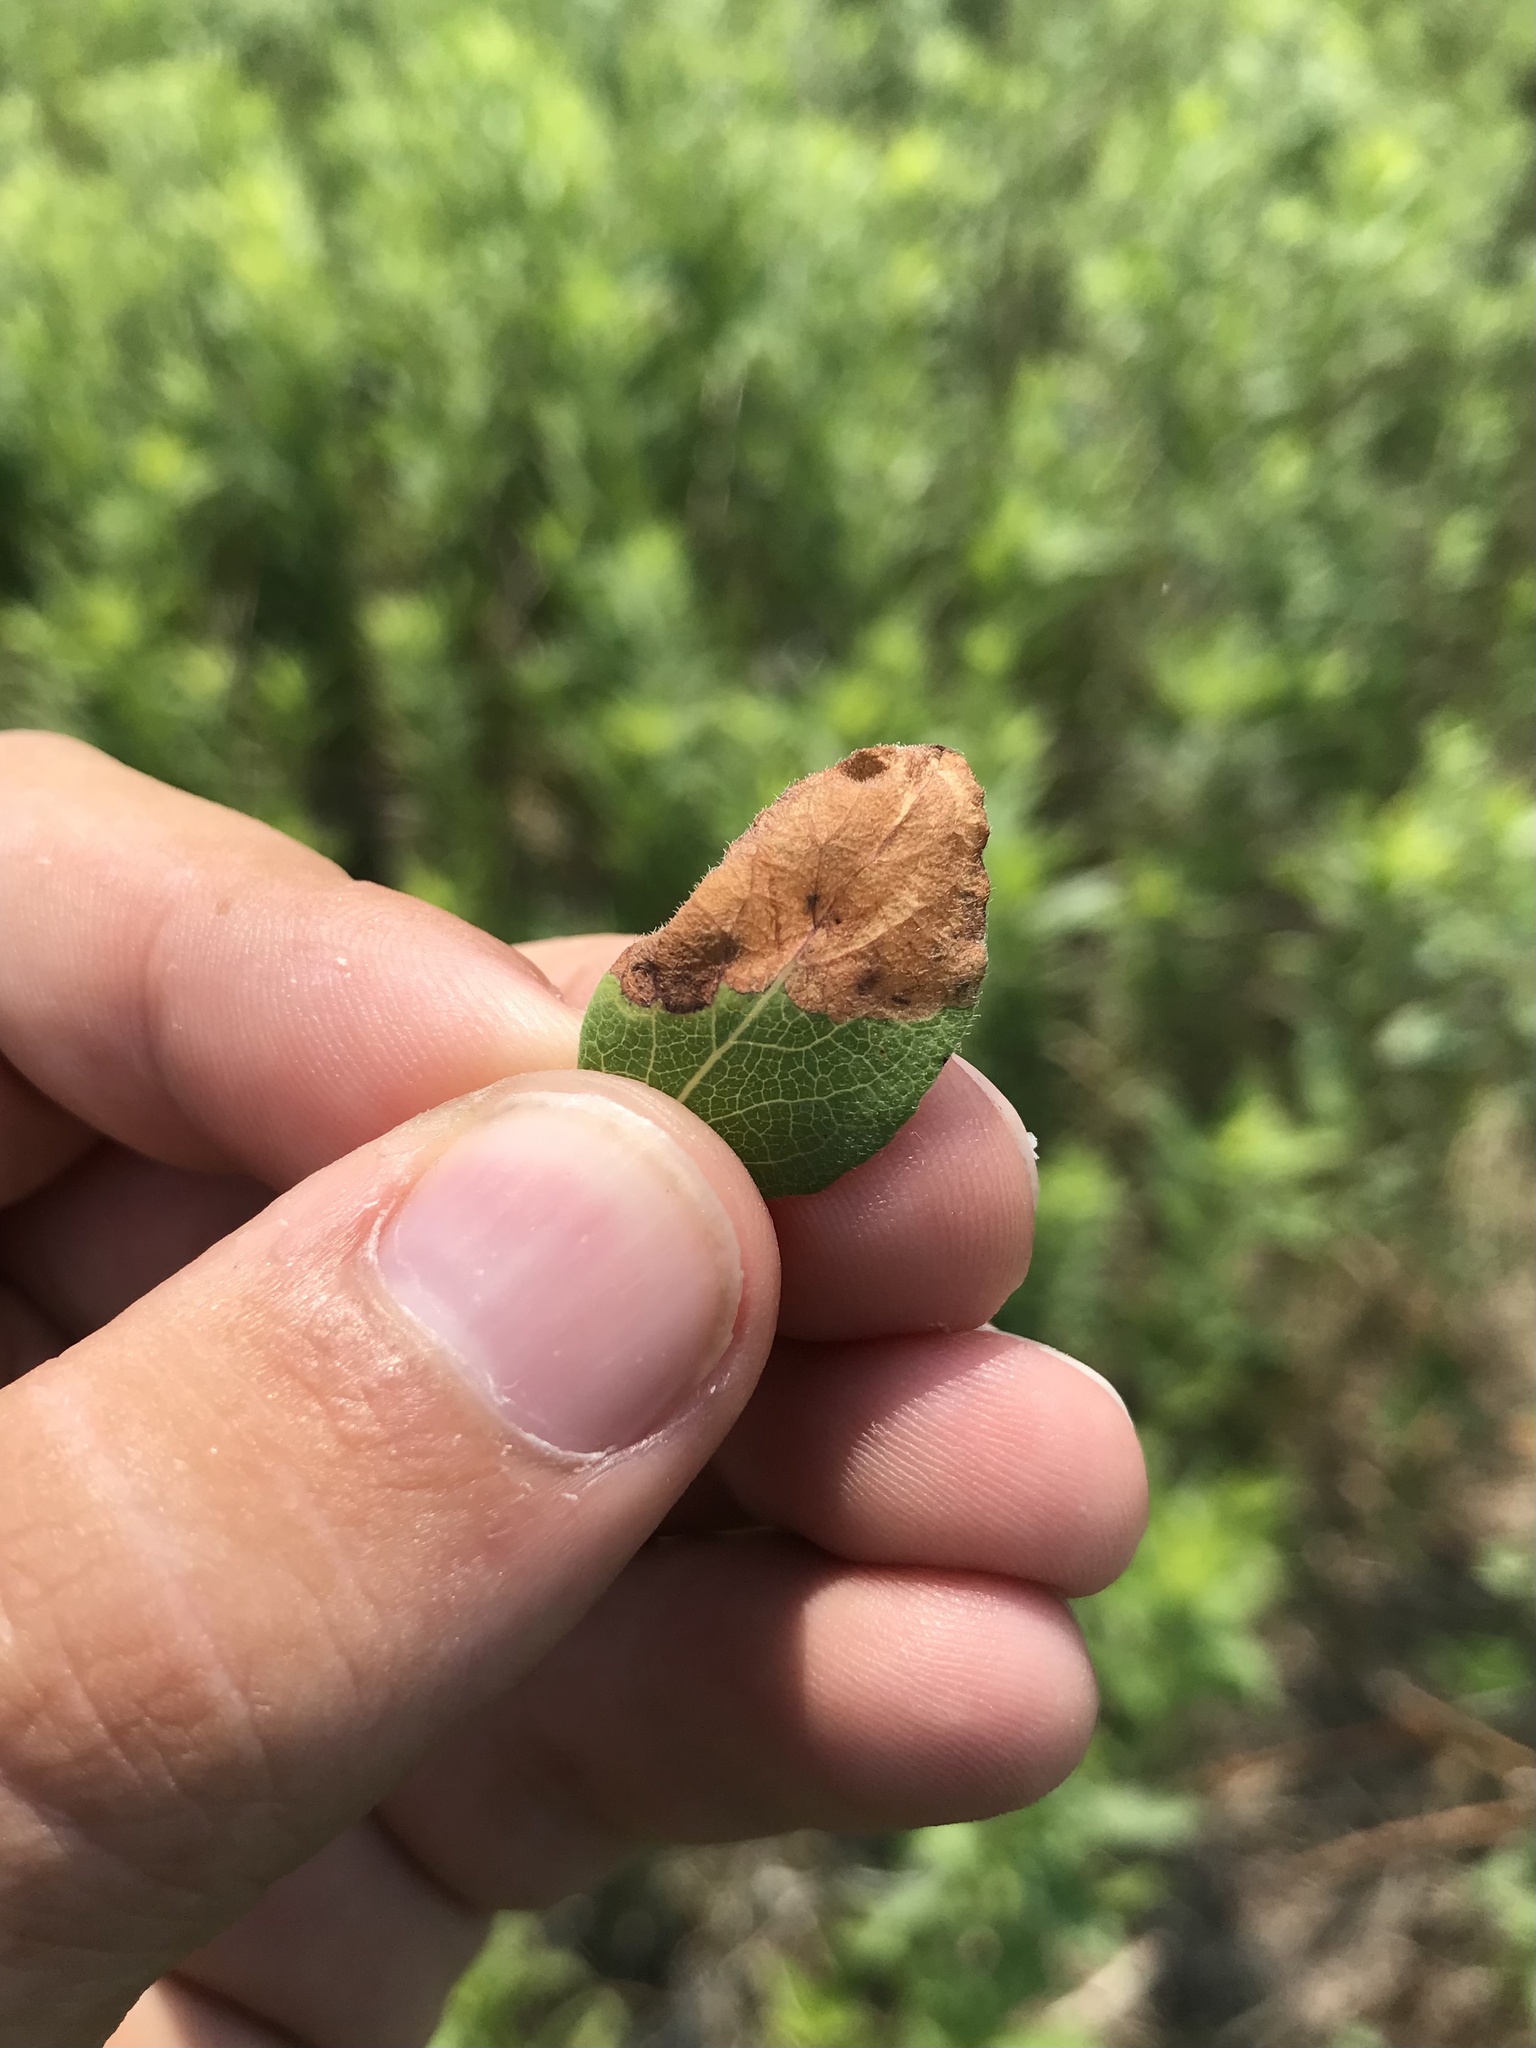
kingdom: Animalia
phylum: Arthropoda
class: Insecta
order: Lepidoptera
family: Elachistidae
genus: Perittia
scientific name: Perittia cygnodiella
